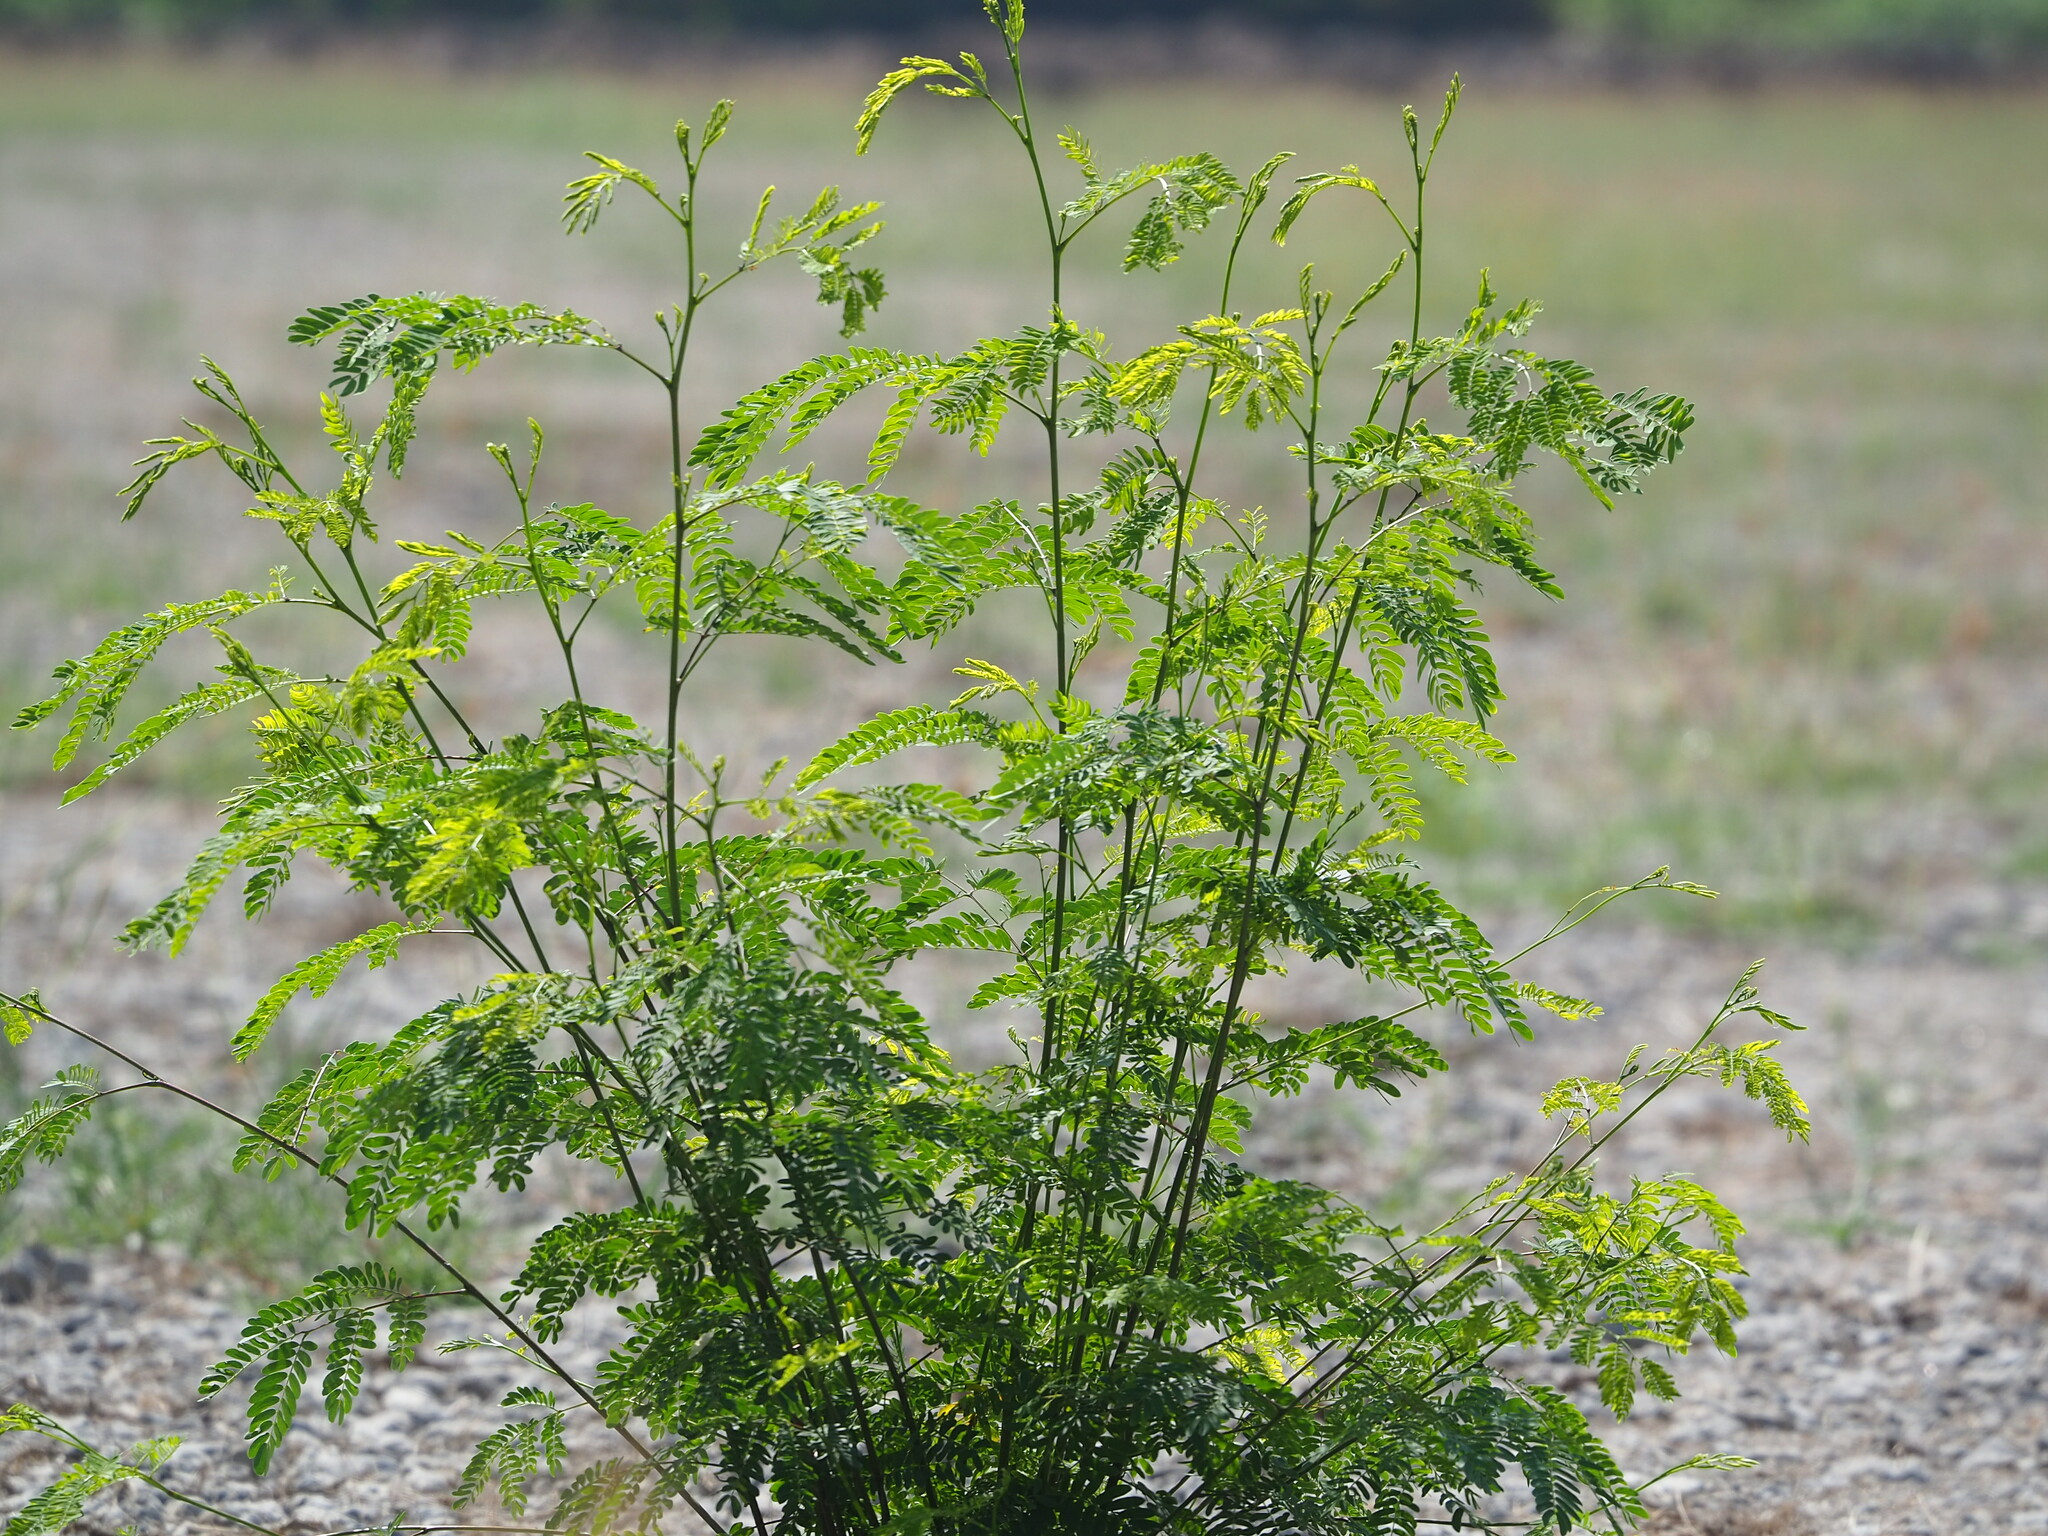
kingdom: Plantae
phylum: Tracheophyta
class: Magnoliopsida
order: Fabales
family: Fabaceae
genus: Leucaena
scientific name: Leucaena leucocephala
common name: White leadtree
